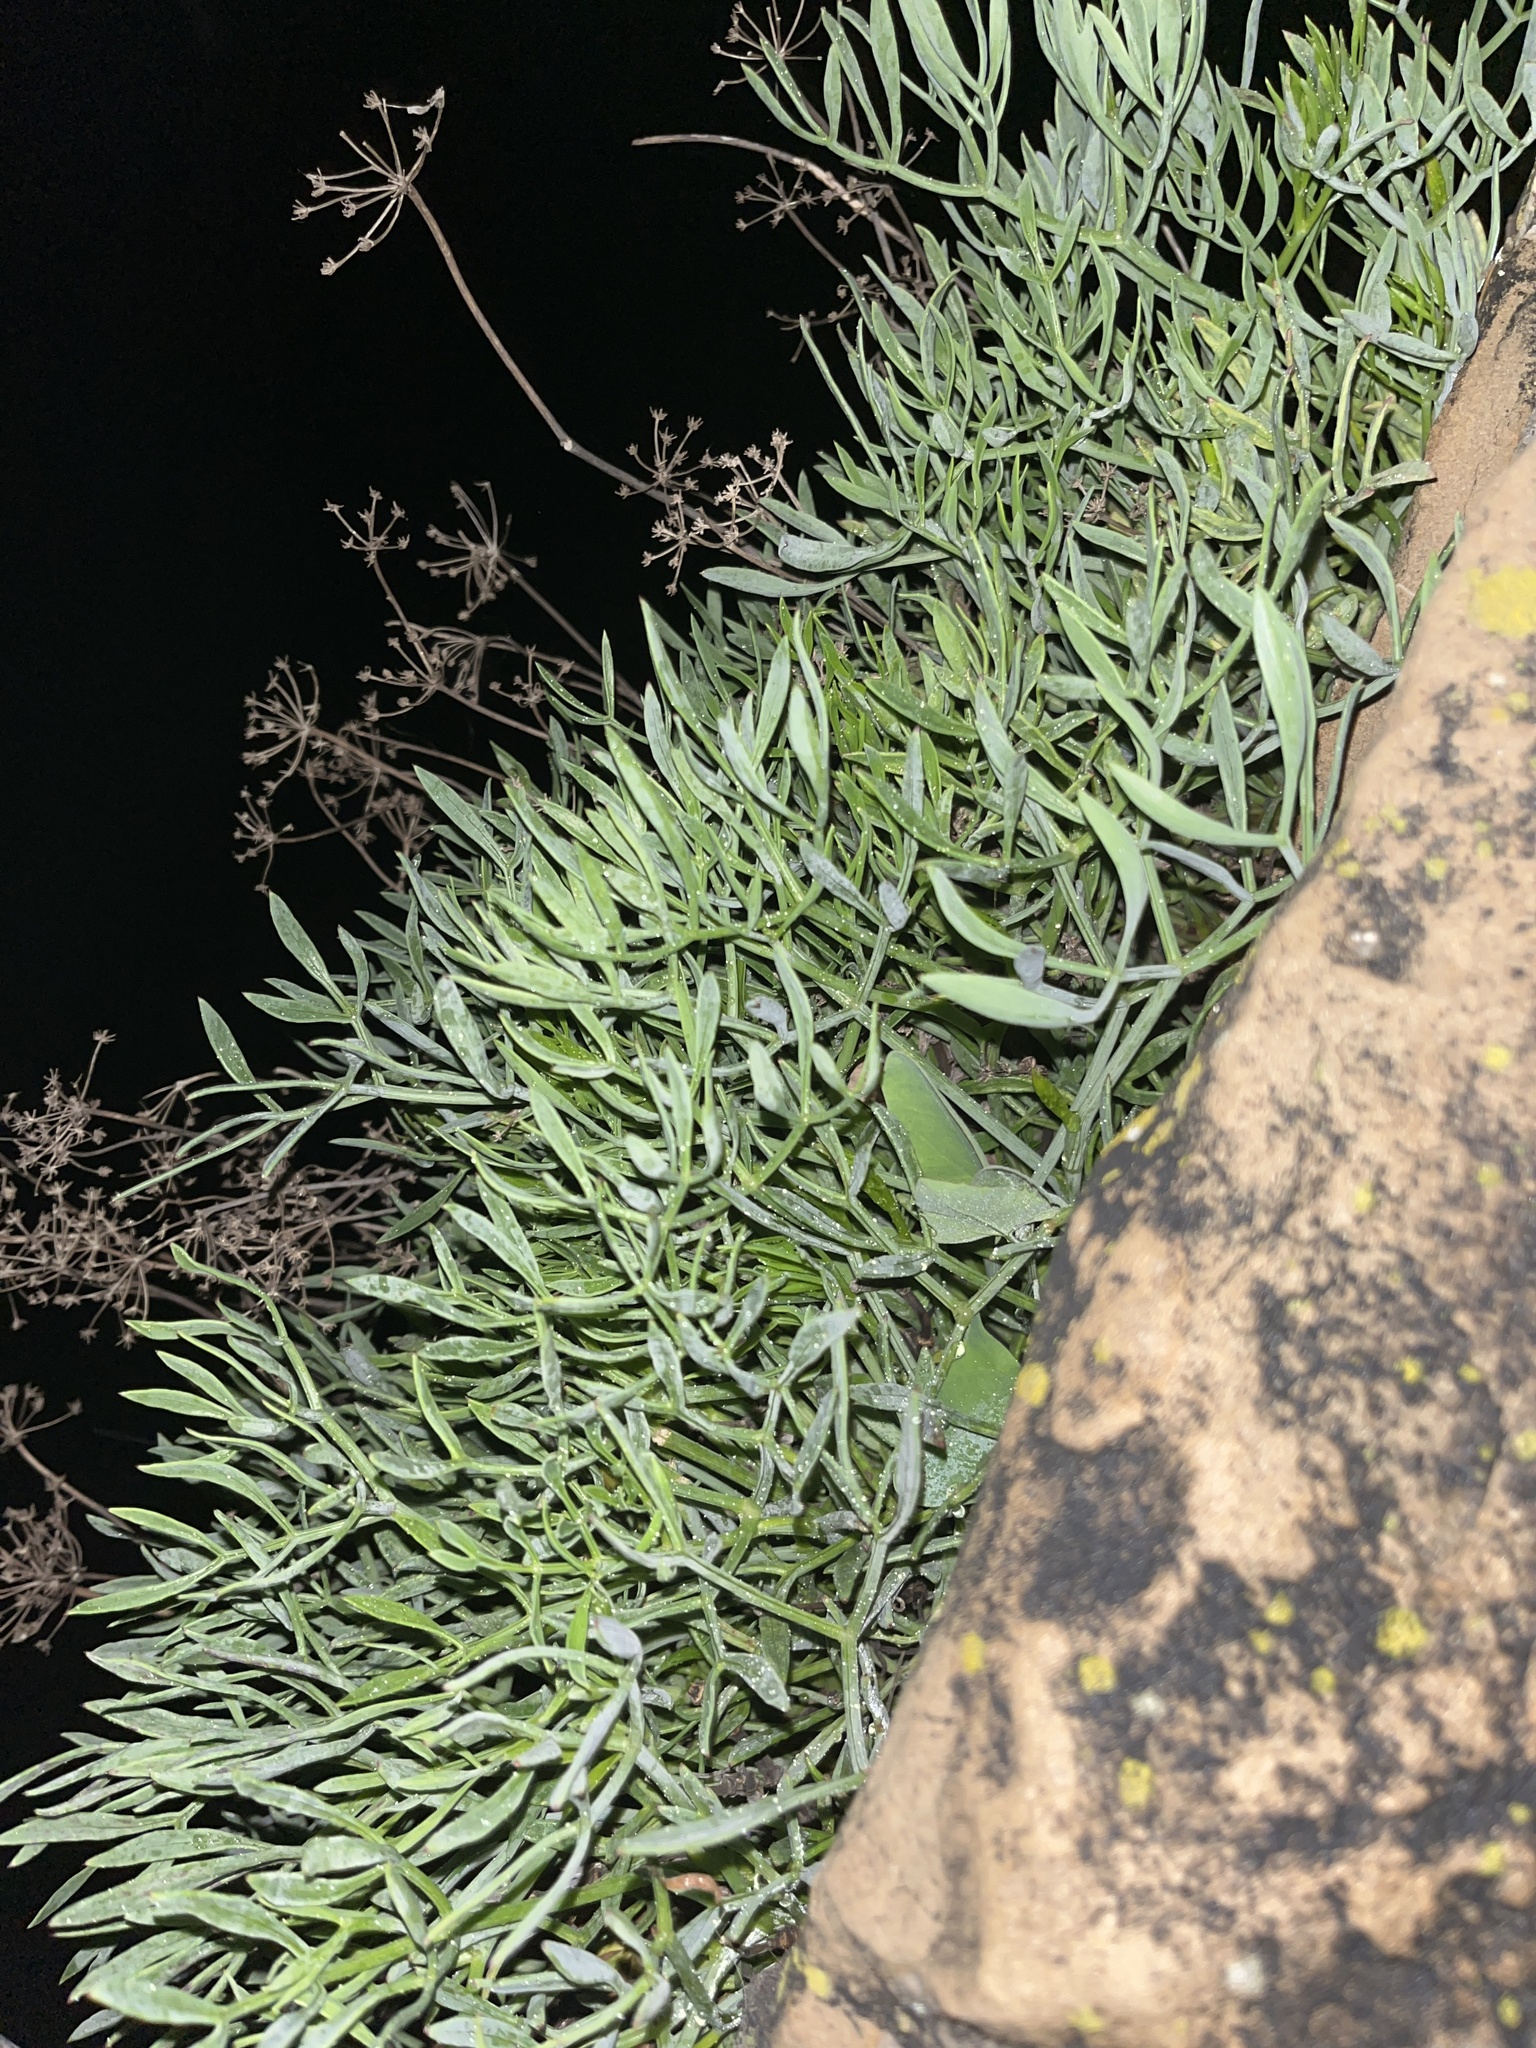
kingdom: Plantae
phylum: Tracheophyta
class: Magnoliopsida
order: Apiales
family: Apiaceae
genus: Crithmum
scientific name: Crithmum maritimum
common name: Rock samphire
